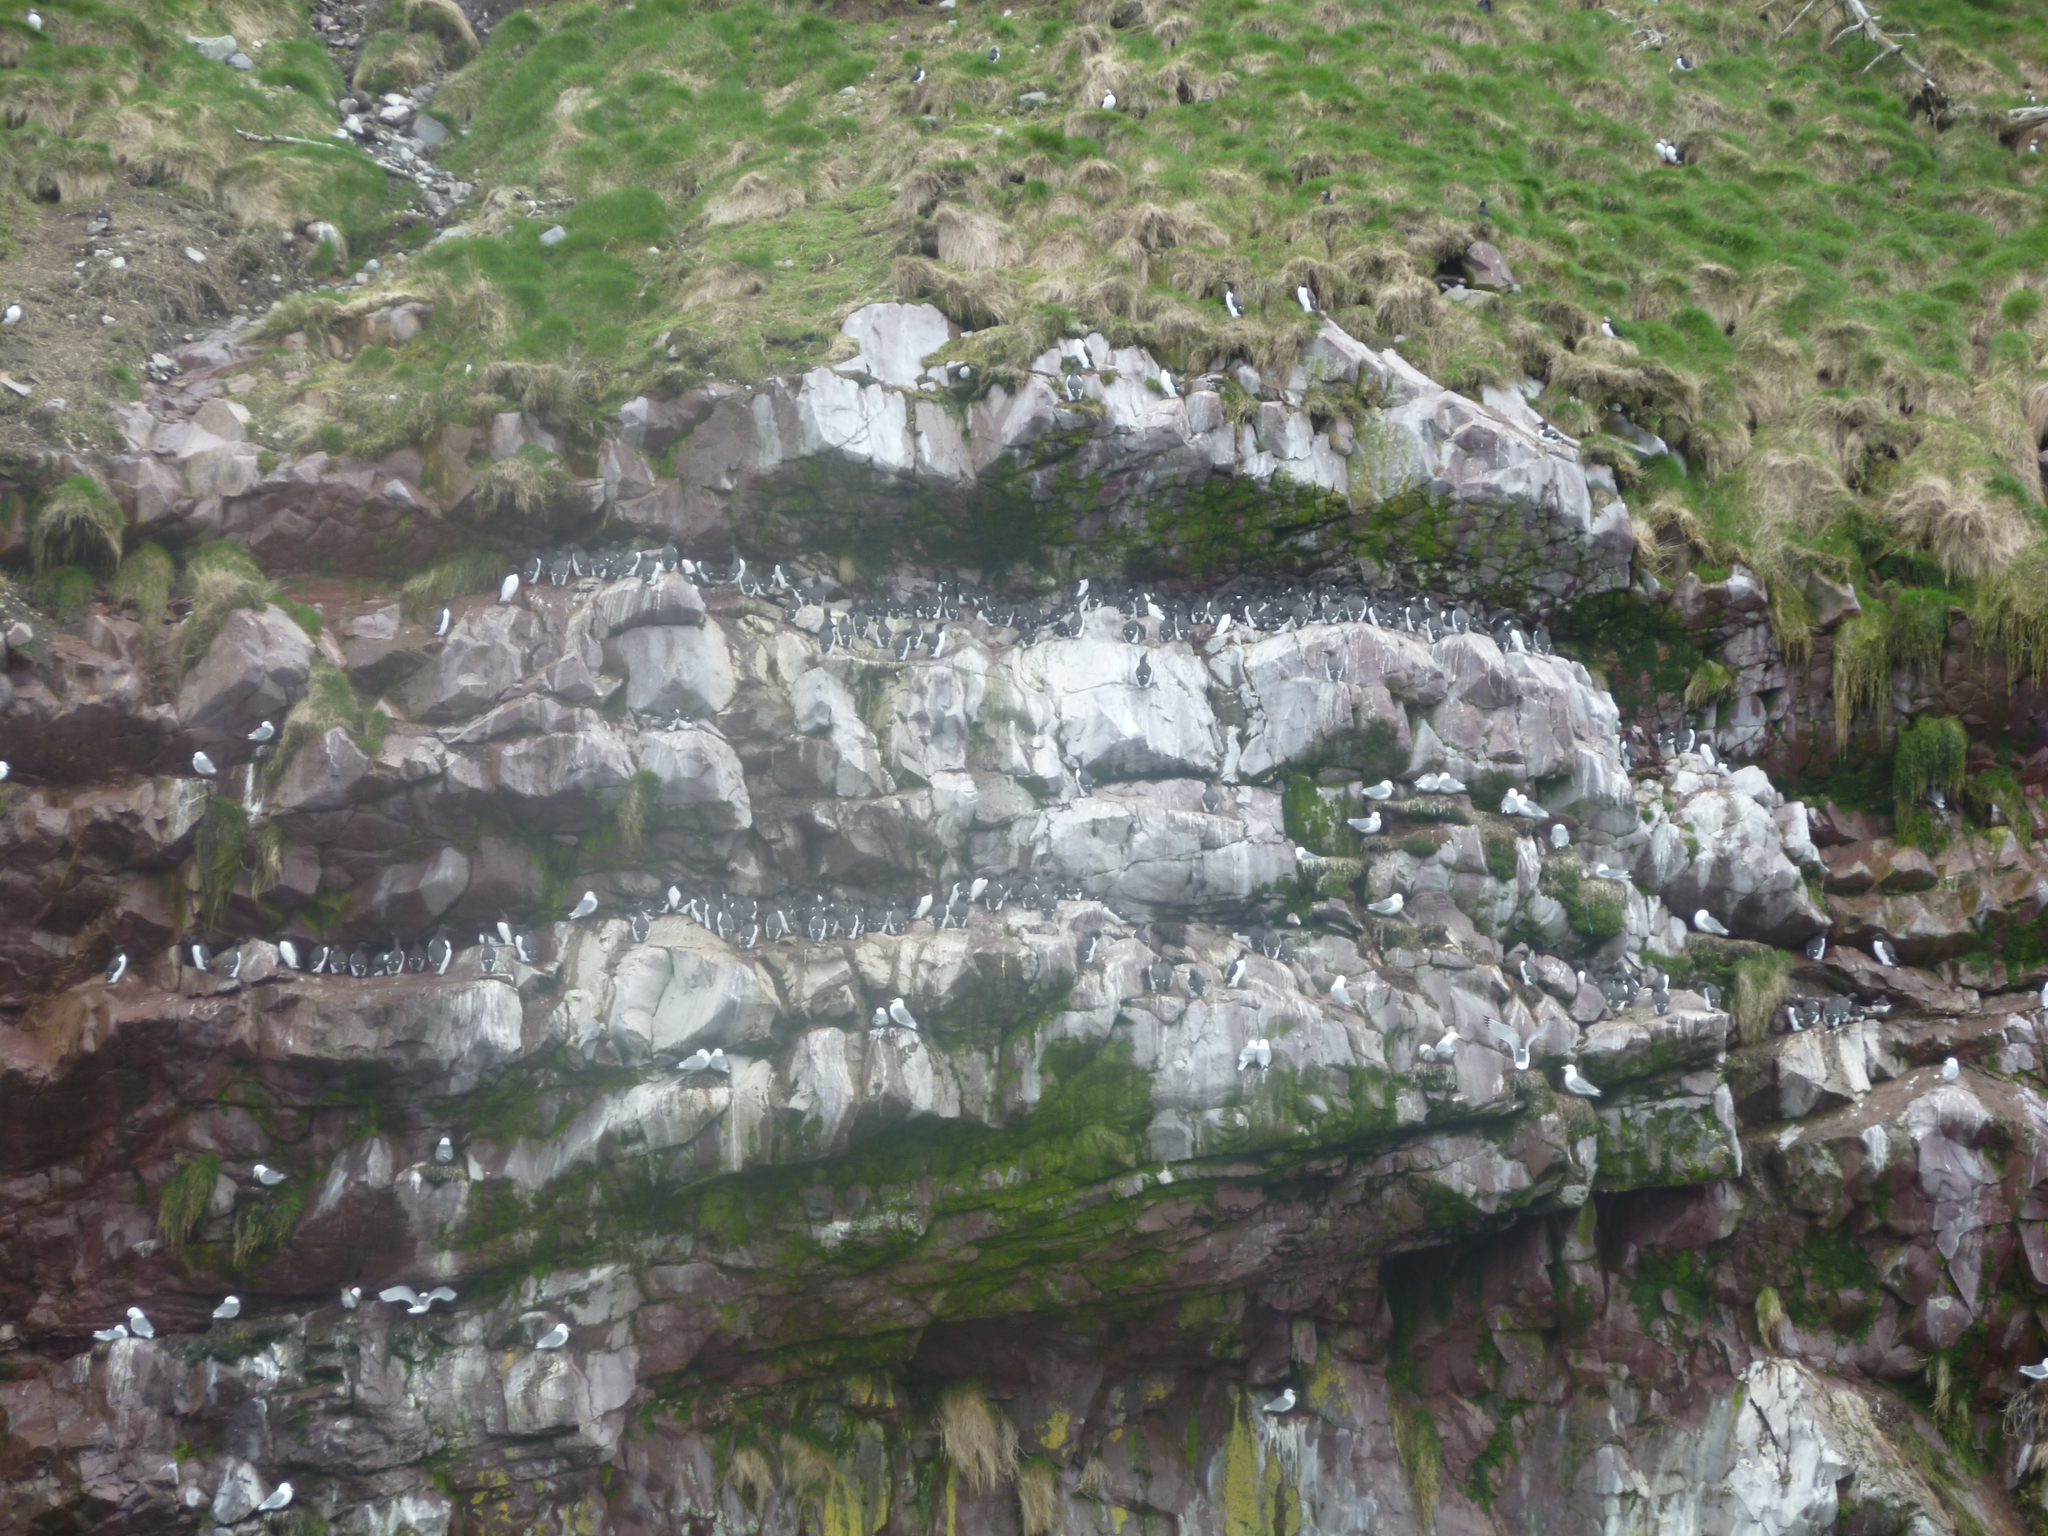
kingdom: Animalia
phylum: Chordata
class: Aves
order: Charadriiformes
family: Alcidae
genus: Uria
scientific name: Uria aalge
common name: Common murre
